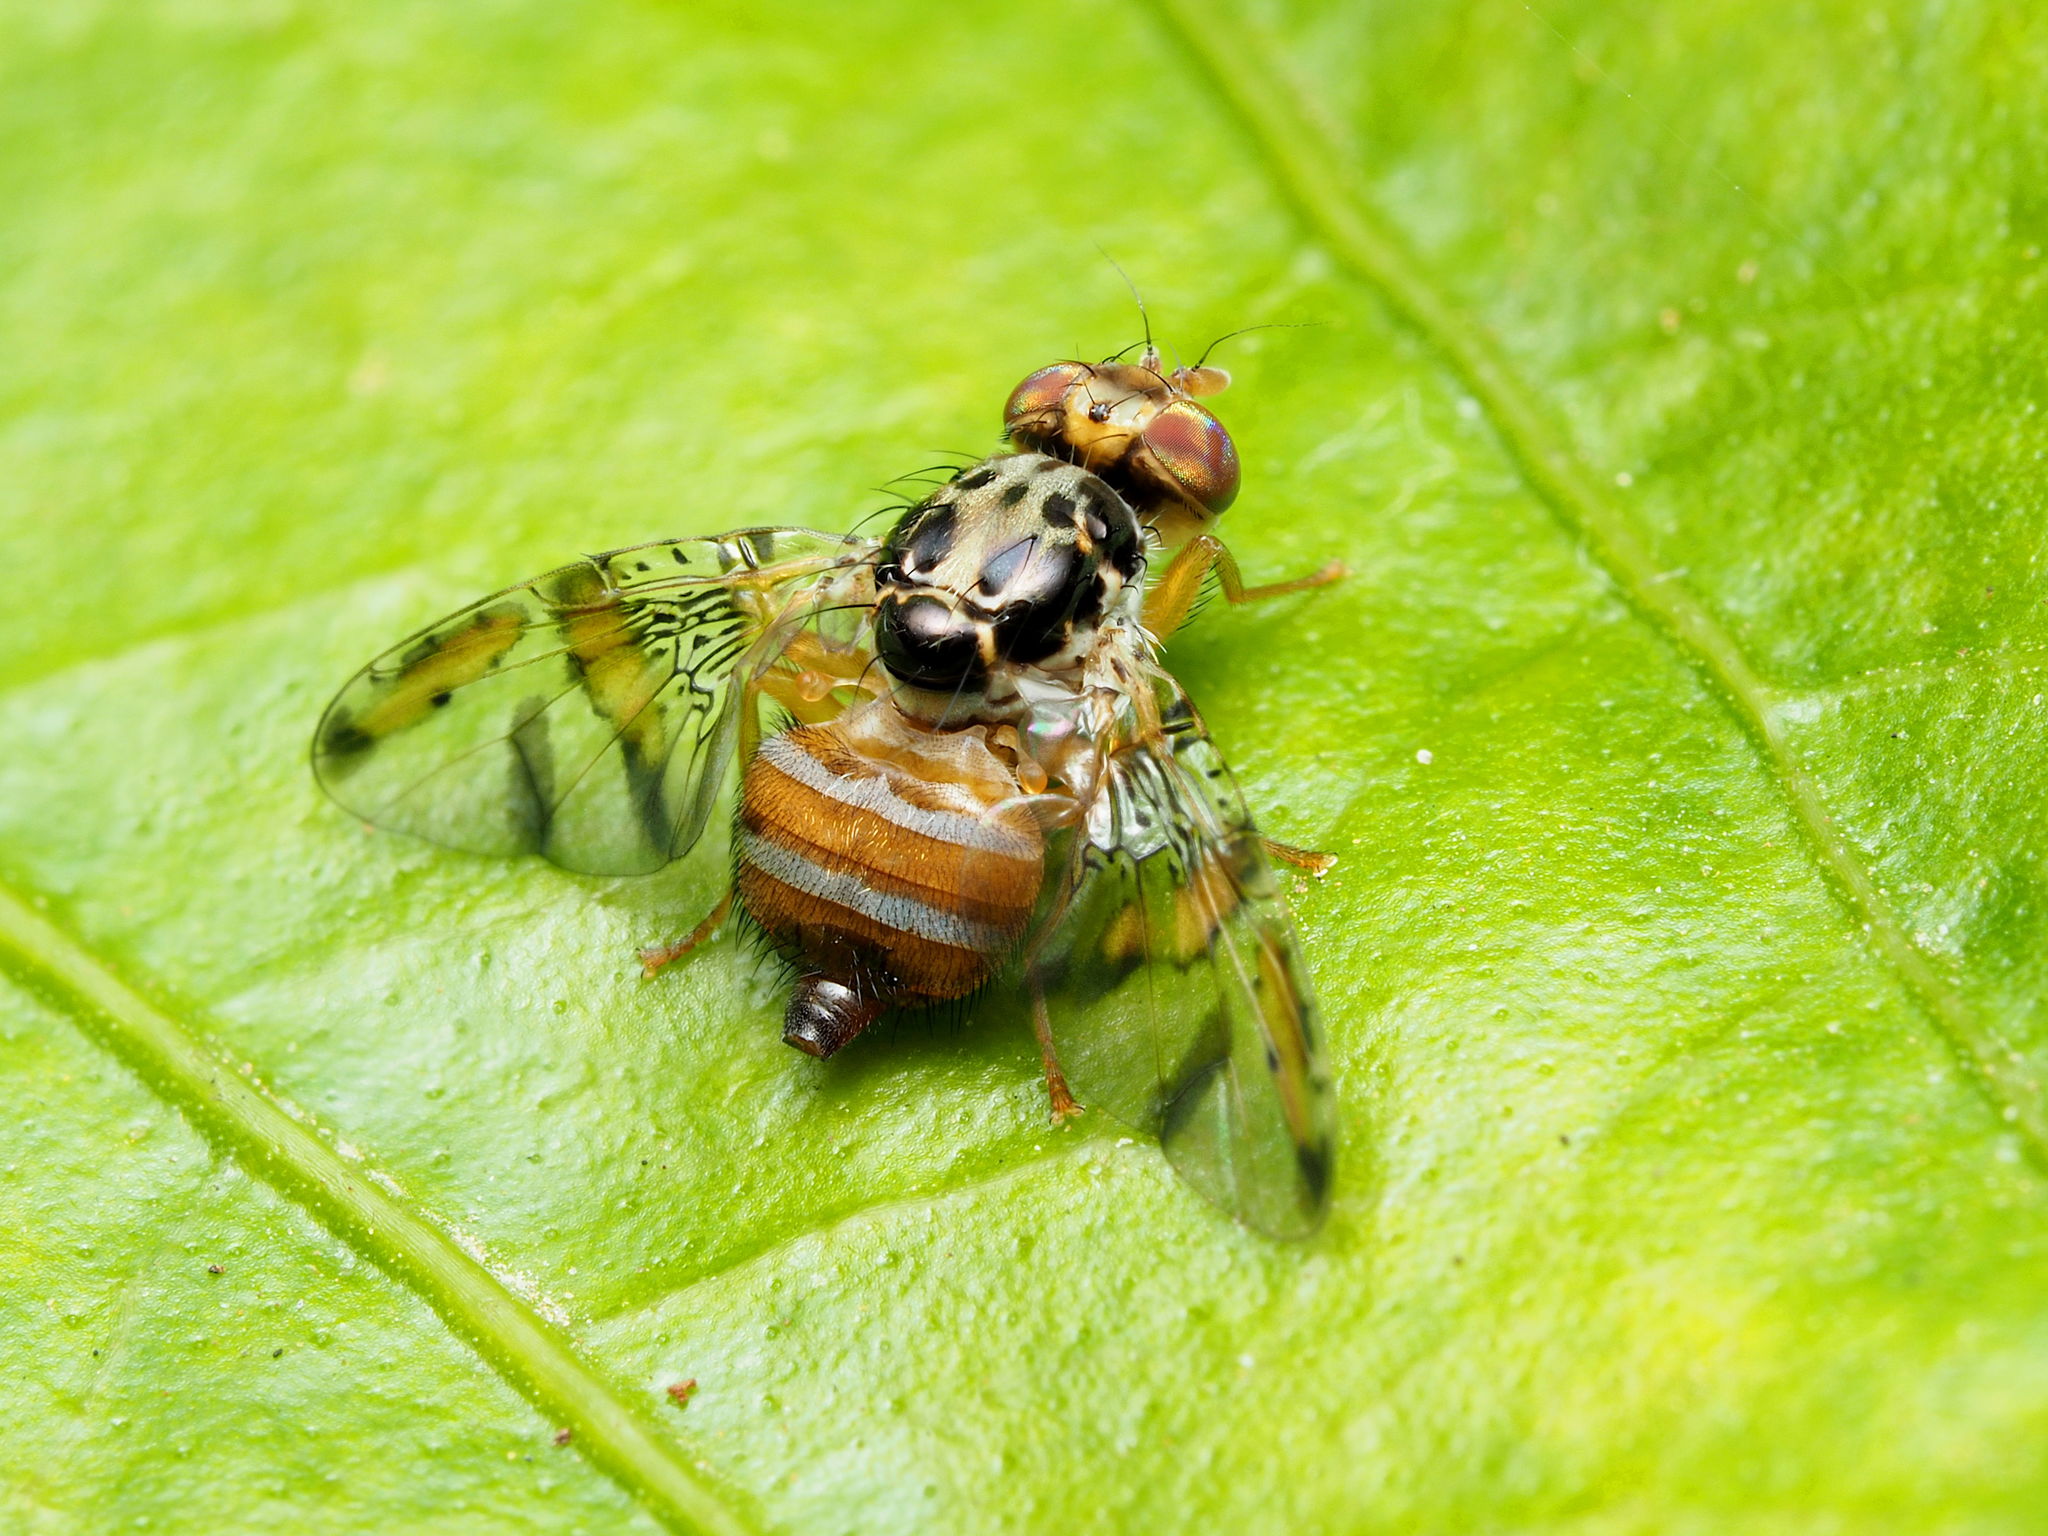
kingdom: Animalia
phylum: Arthropoda
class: Insecta
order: Diptera
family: Tephritidae
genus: Ceratitis
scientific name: Ceratitis capitata
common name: Mediterranean fruit fly
